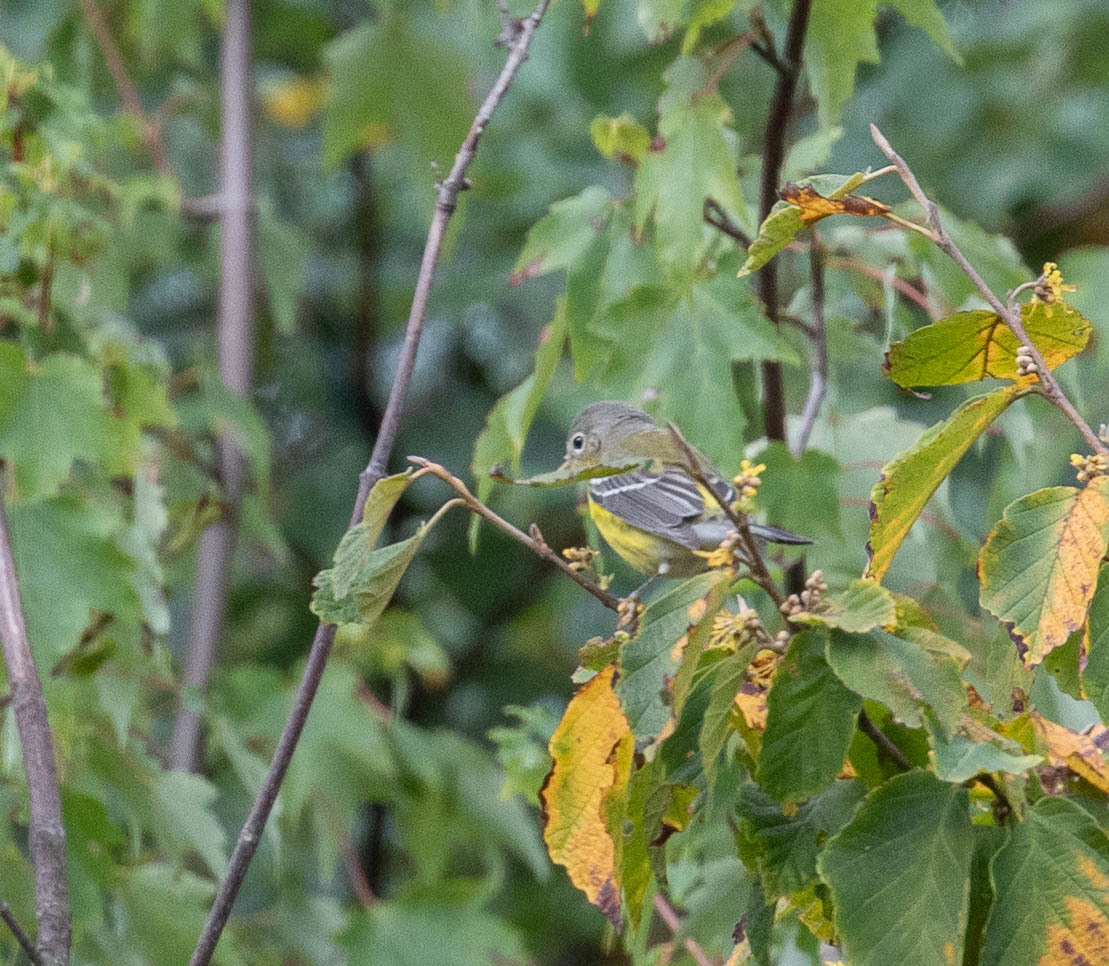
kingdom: Animalia
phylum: Chordata
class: Aves
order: Passeriformes
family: Parulidae
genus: Setophaga
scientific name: Setophaga magnolia
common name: Magnolia warbler
